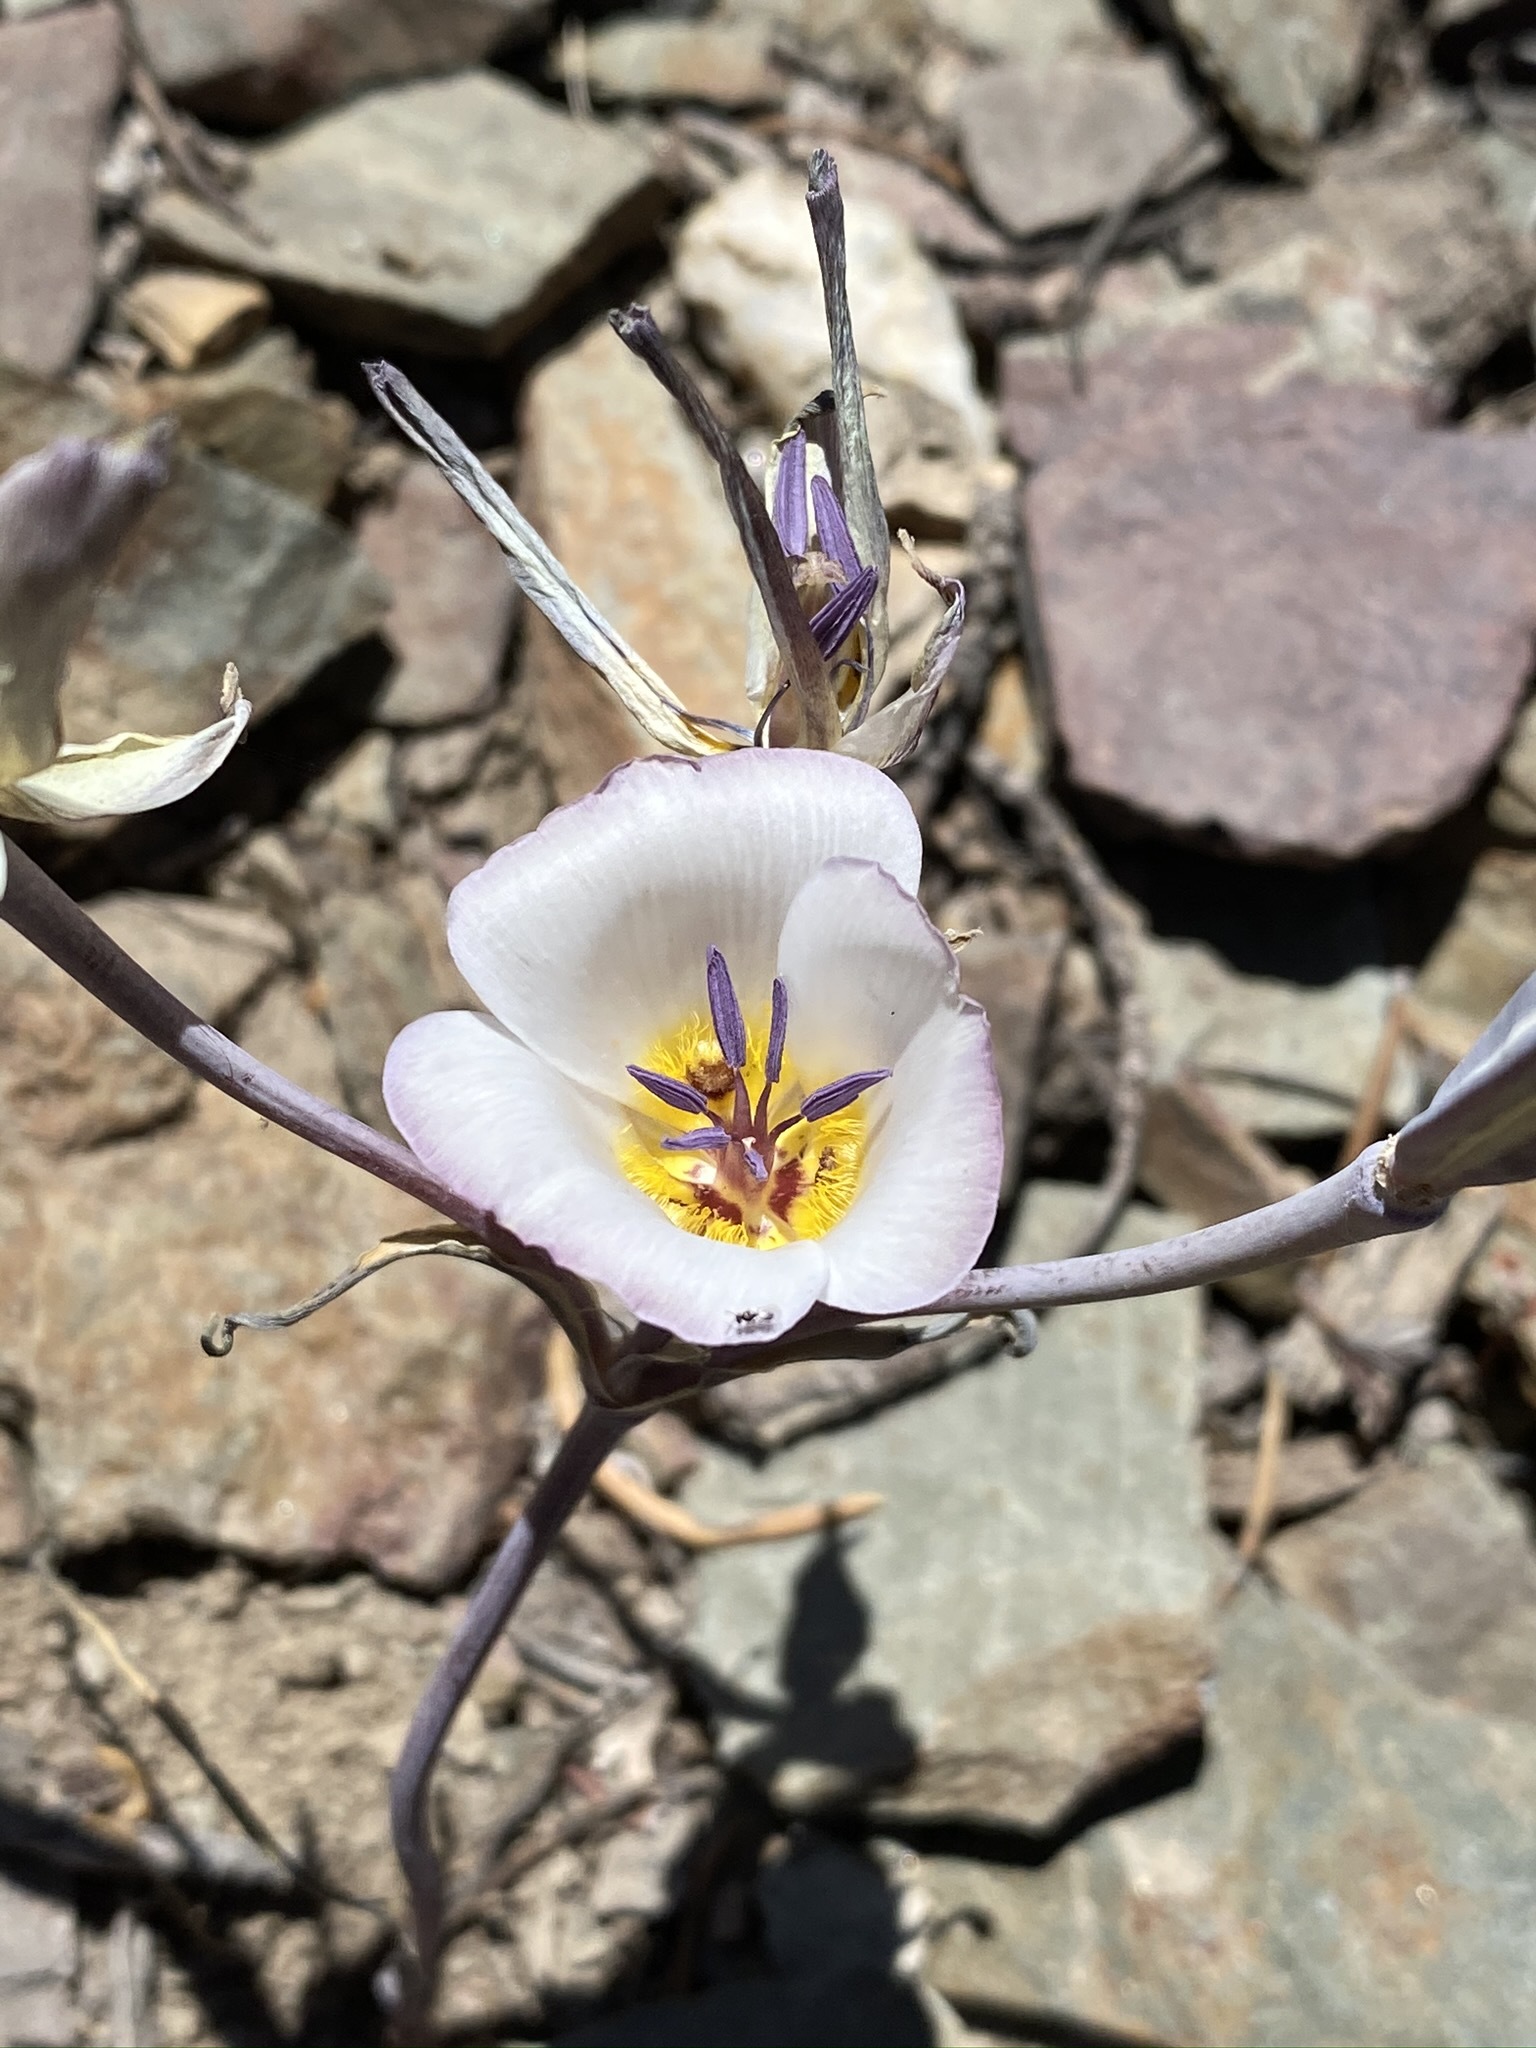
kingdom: Plantae
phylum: Tracheophyta
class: Liliopsida
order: Liliales
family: Liliaceae
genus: Calochortus
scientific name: Calochortus panamintensis
